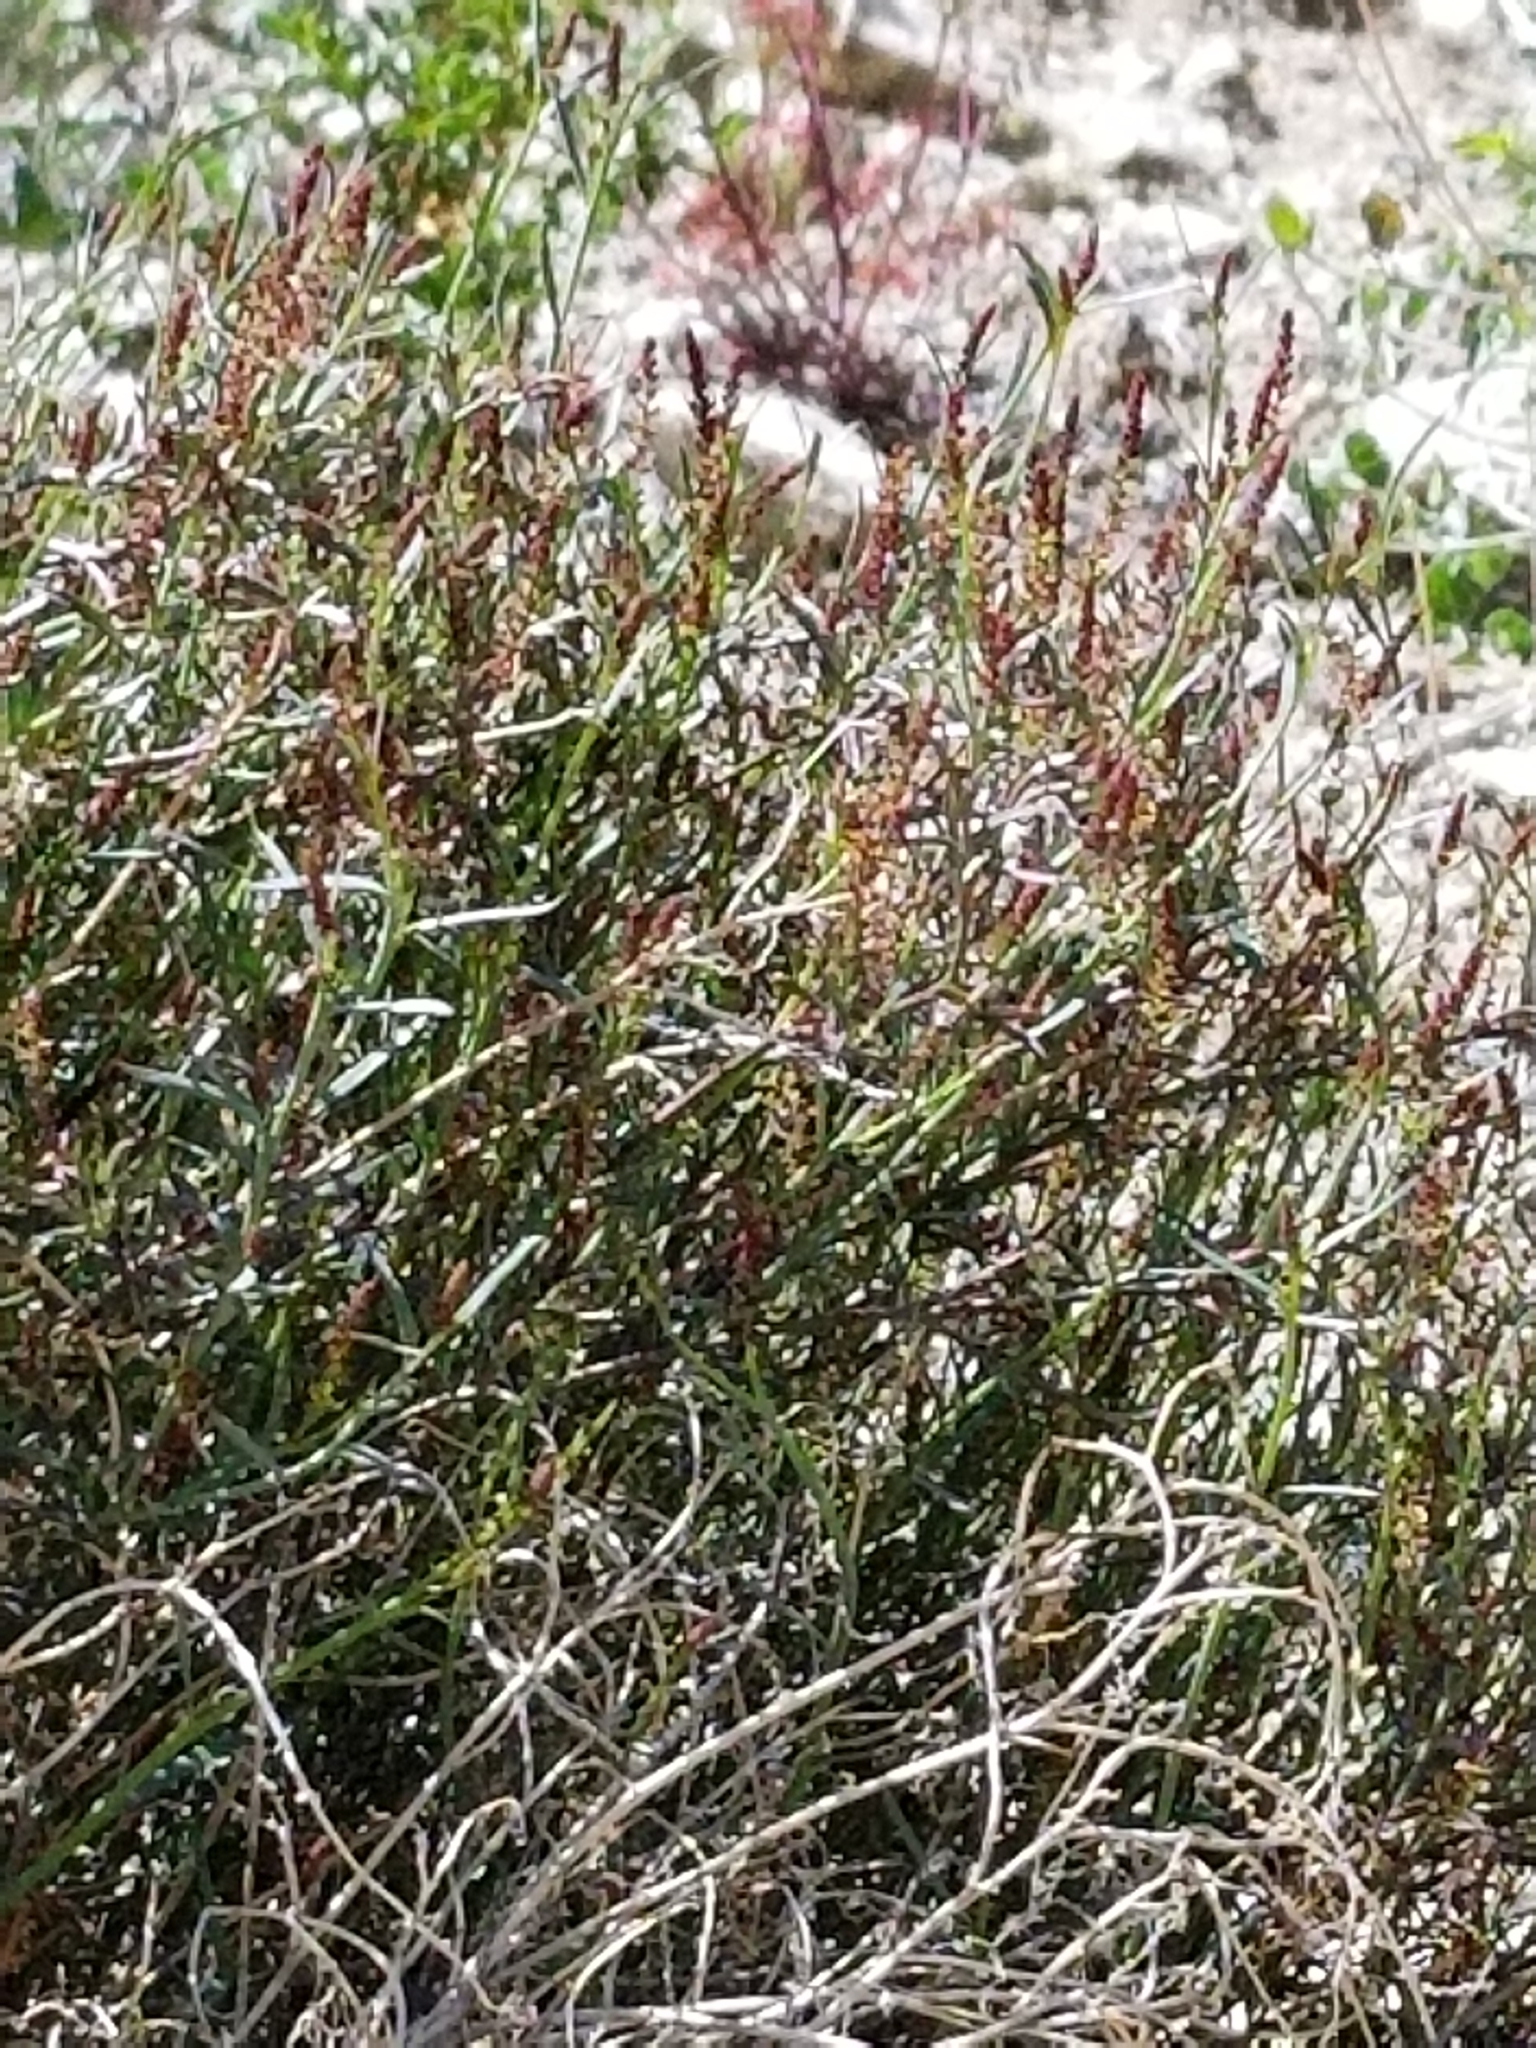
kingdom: Plantae
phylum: Tracheophyta
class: Magnoliopsida
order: Malpighiales
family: Euphorbiaceae
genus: Stillingia
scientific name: Stillingia linearifolia
